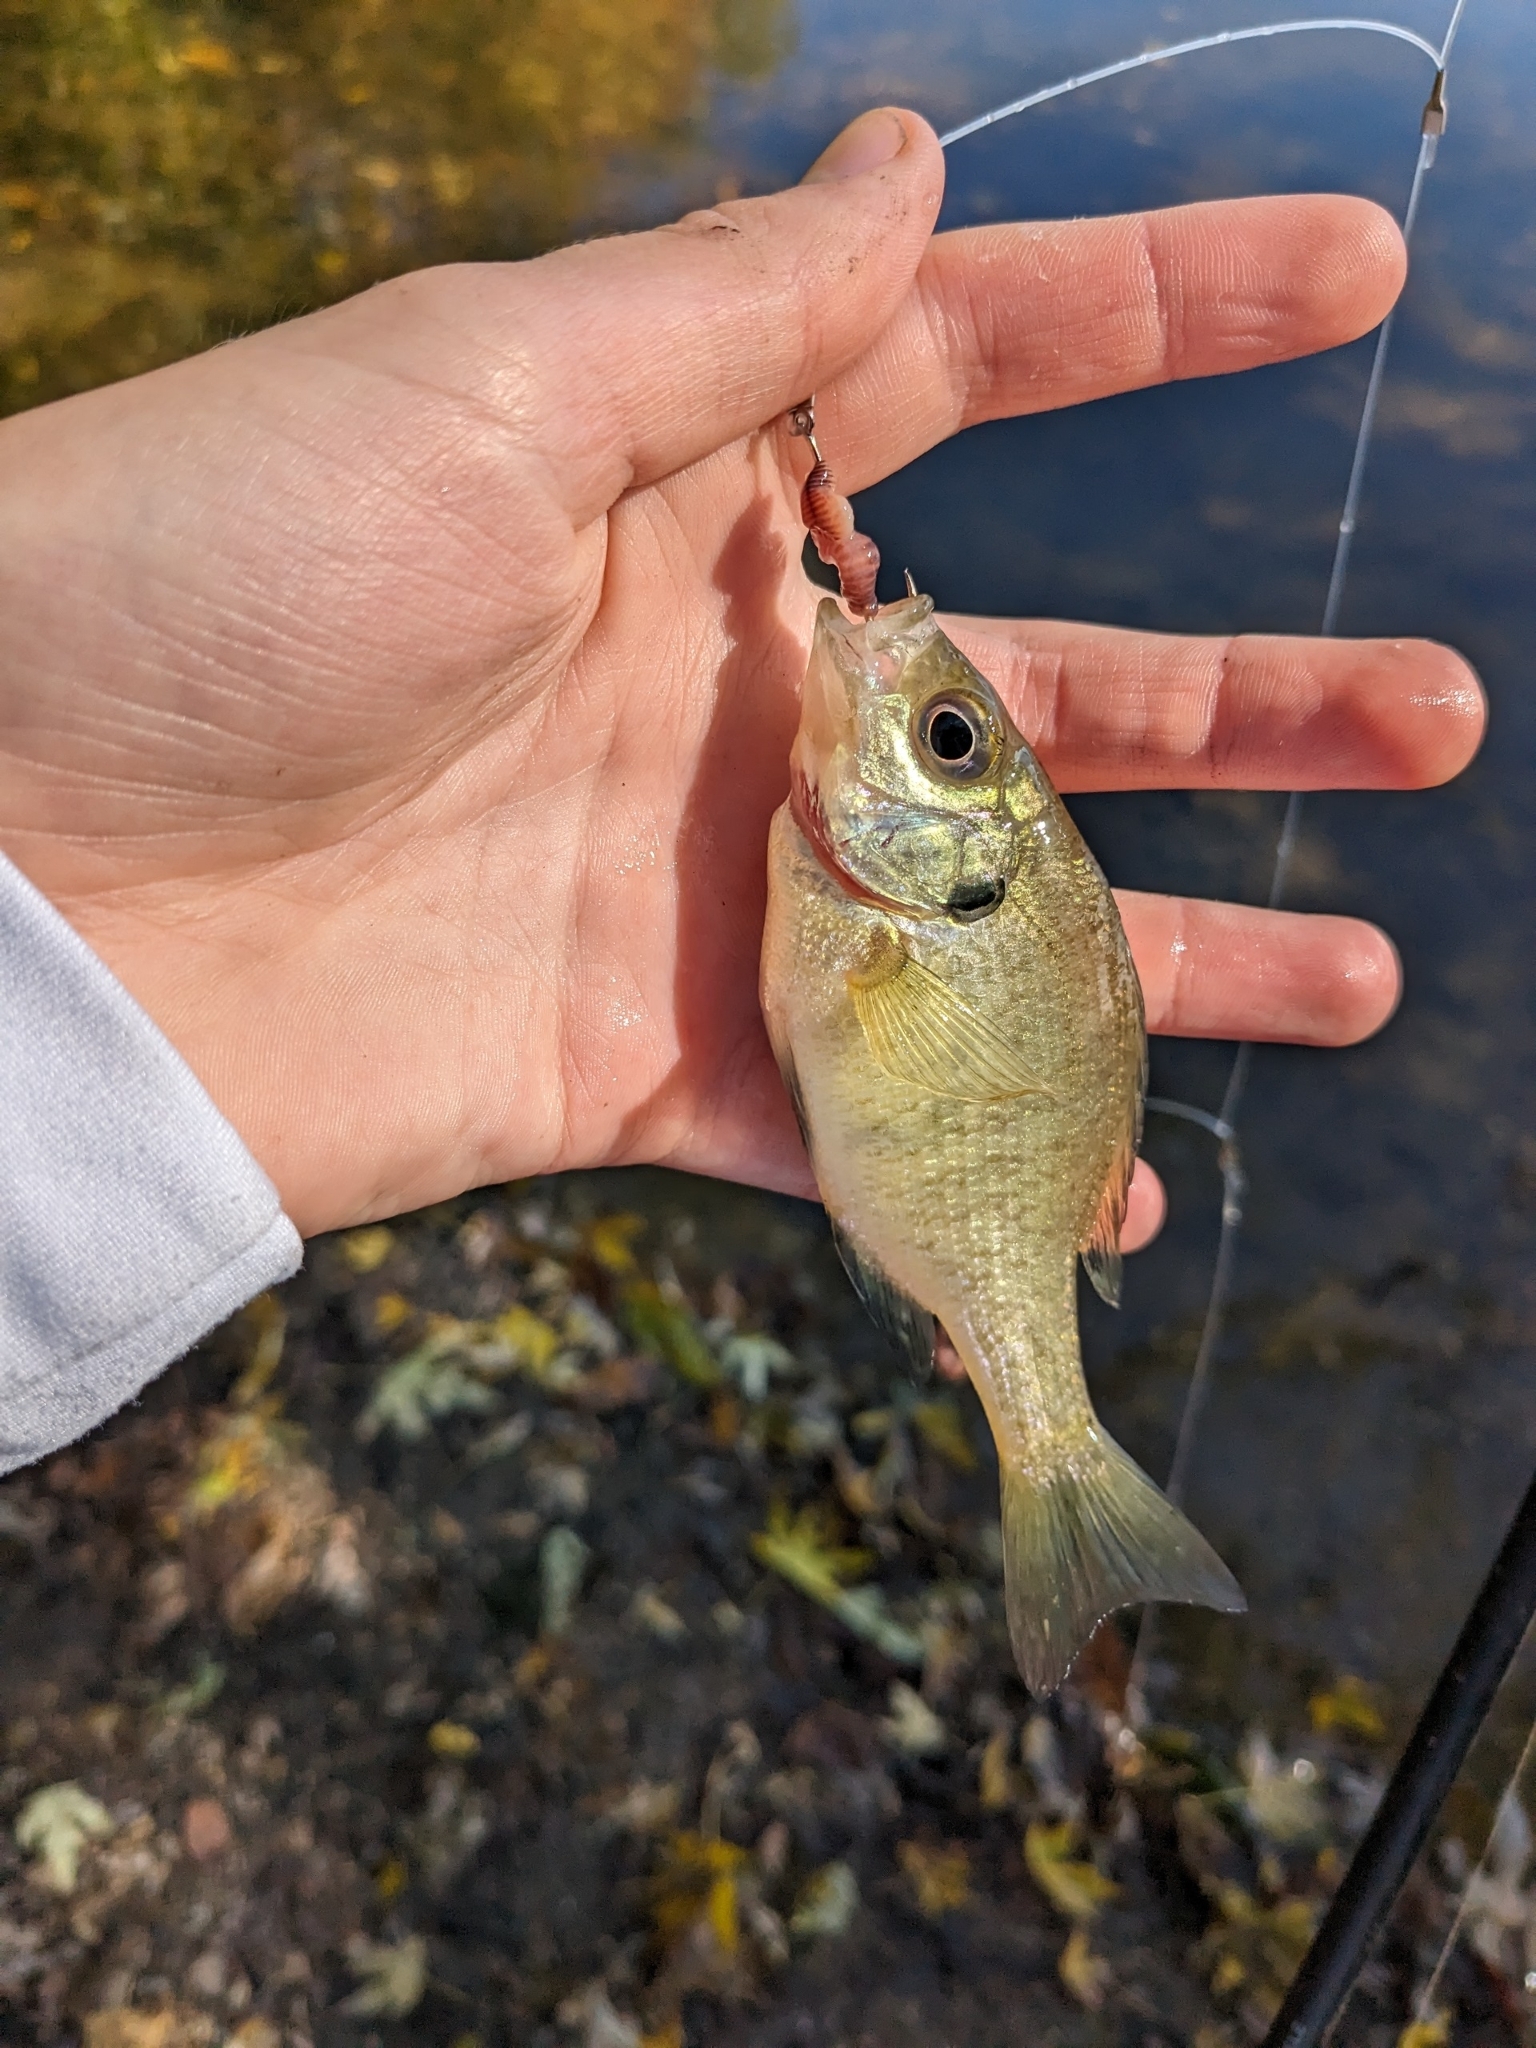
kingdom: Animalia
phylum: Chordata
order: Perciformes
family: Centrarchidae
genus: Lepomis
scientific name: Lepomis macrochirus
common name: Bluegill
